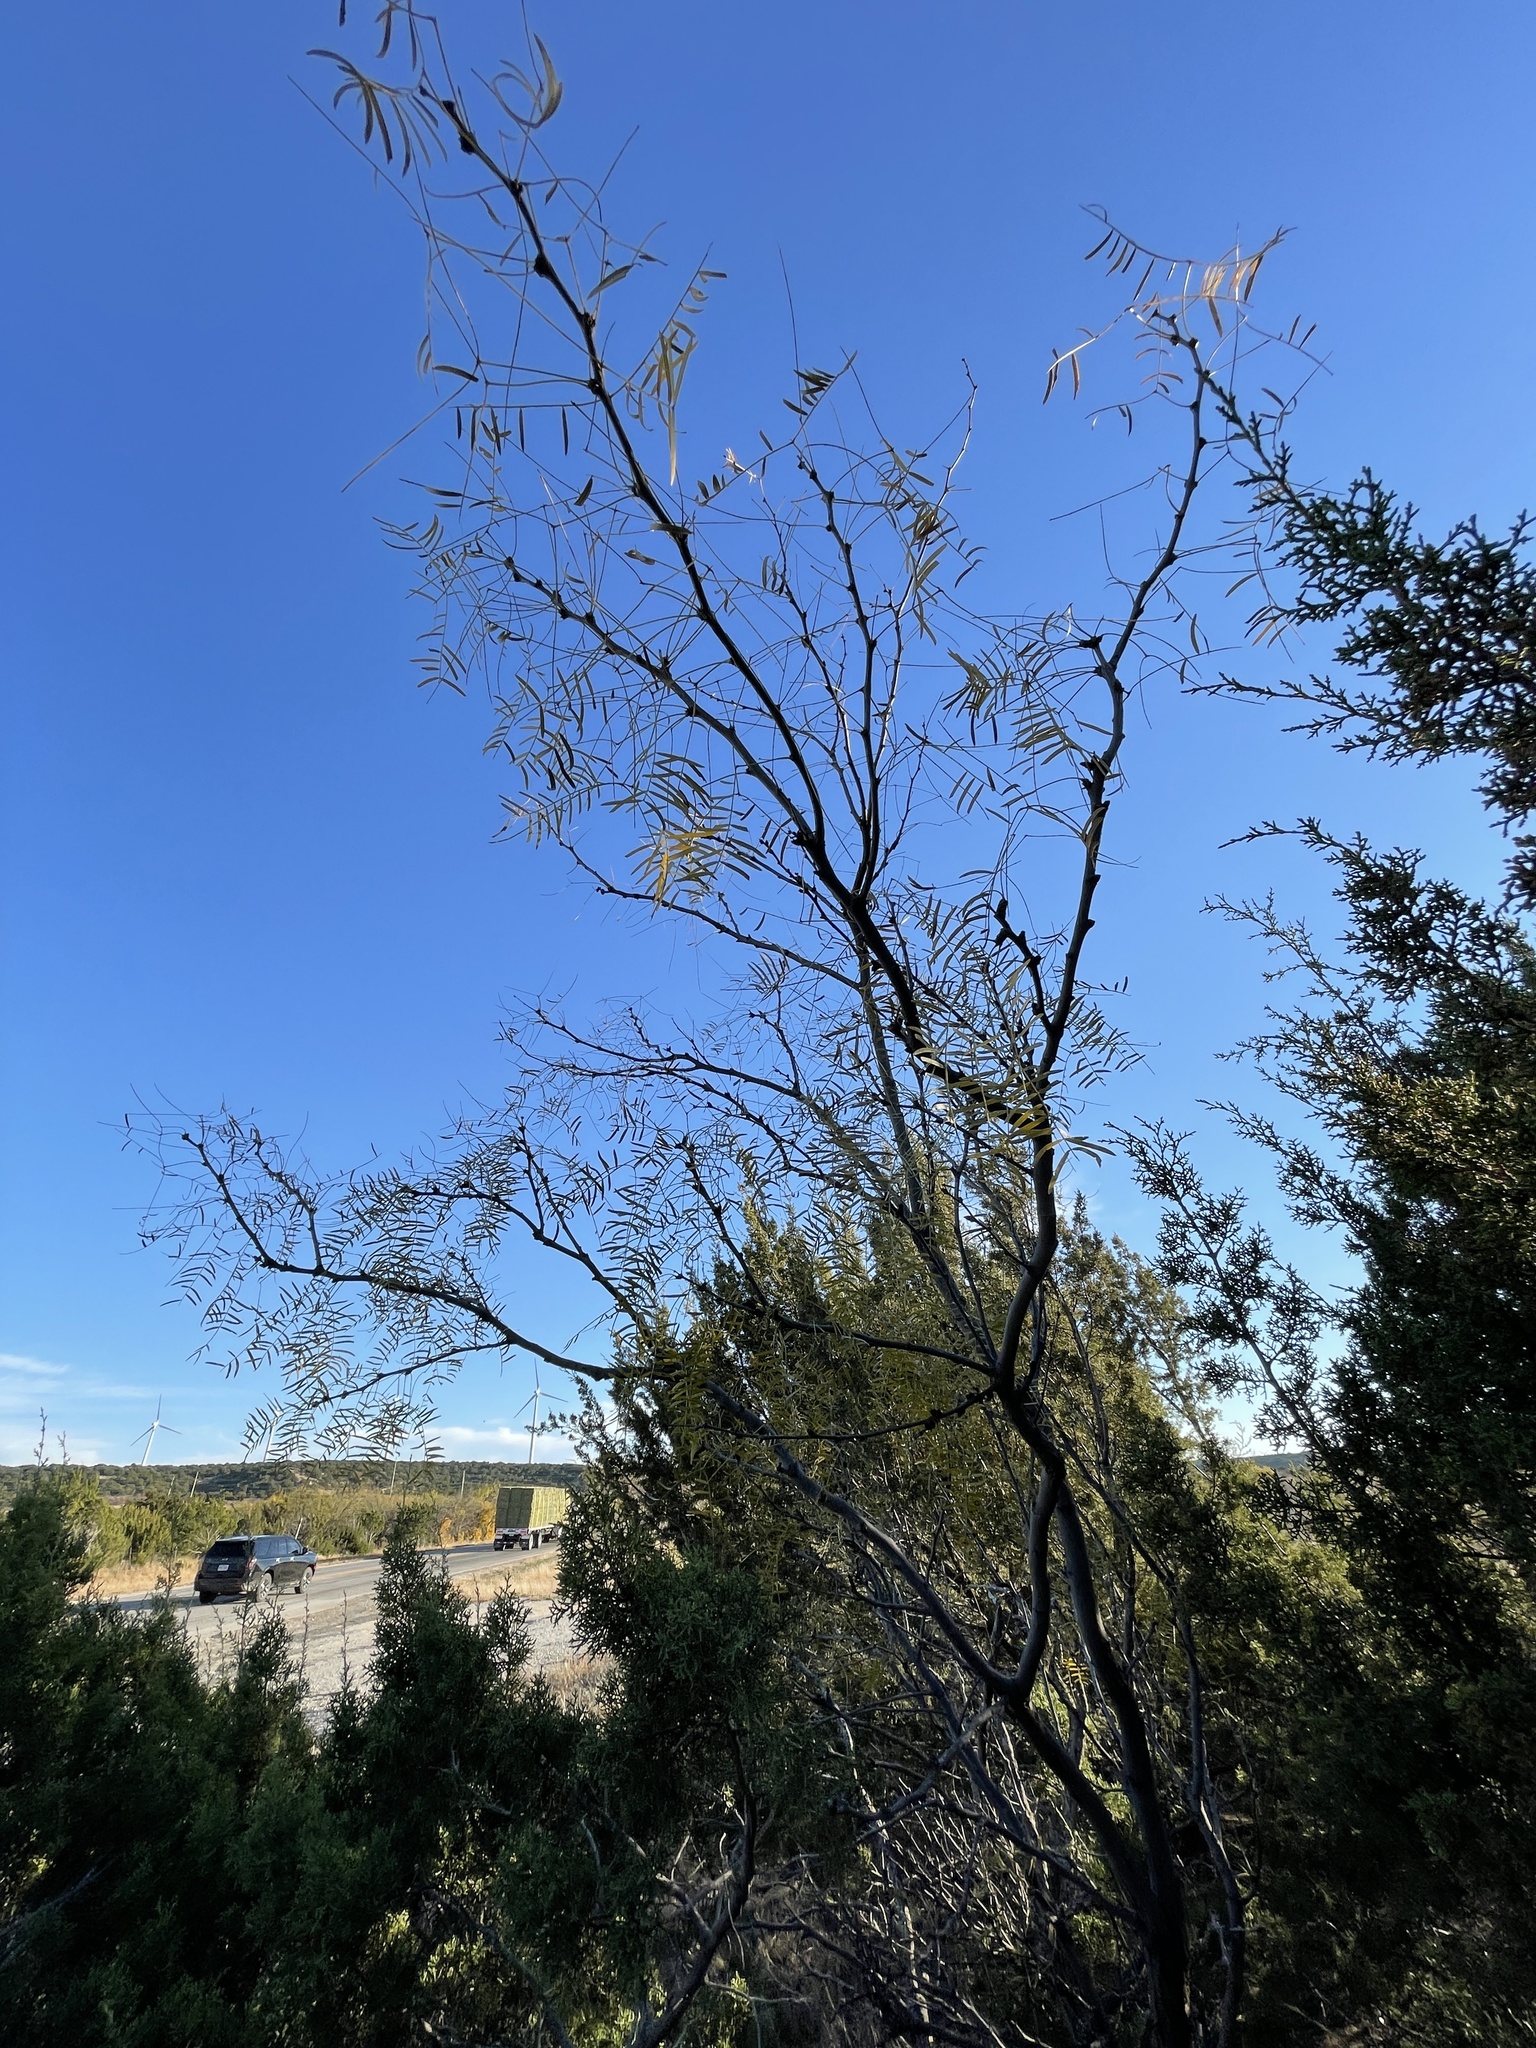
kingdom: Plantae
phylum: Tracheophyta
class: Magnoliopsida
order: Fabales
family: Fabaceae
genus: Prosopis
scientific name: Prosopis glandulosa
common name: Honey mesquite
